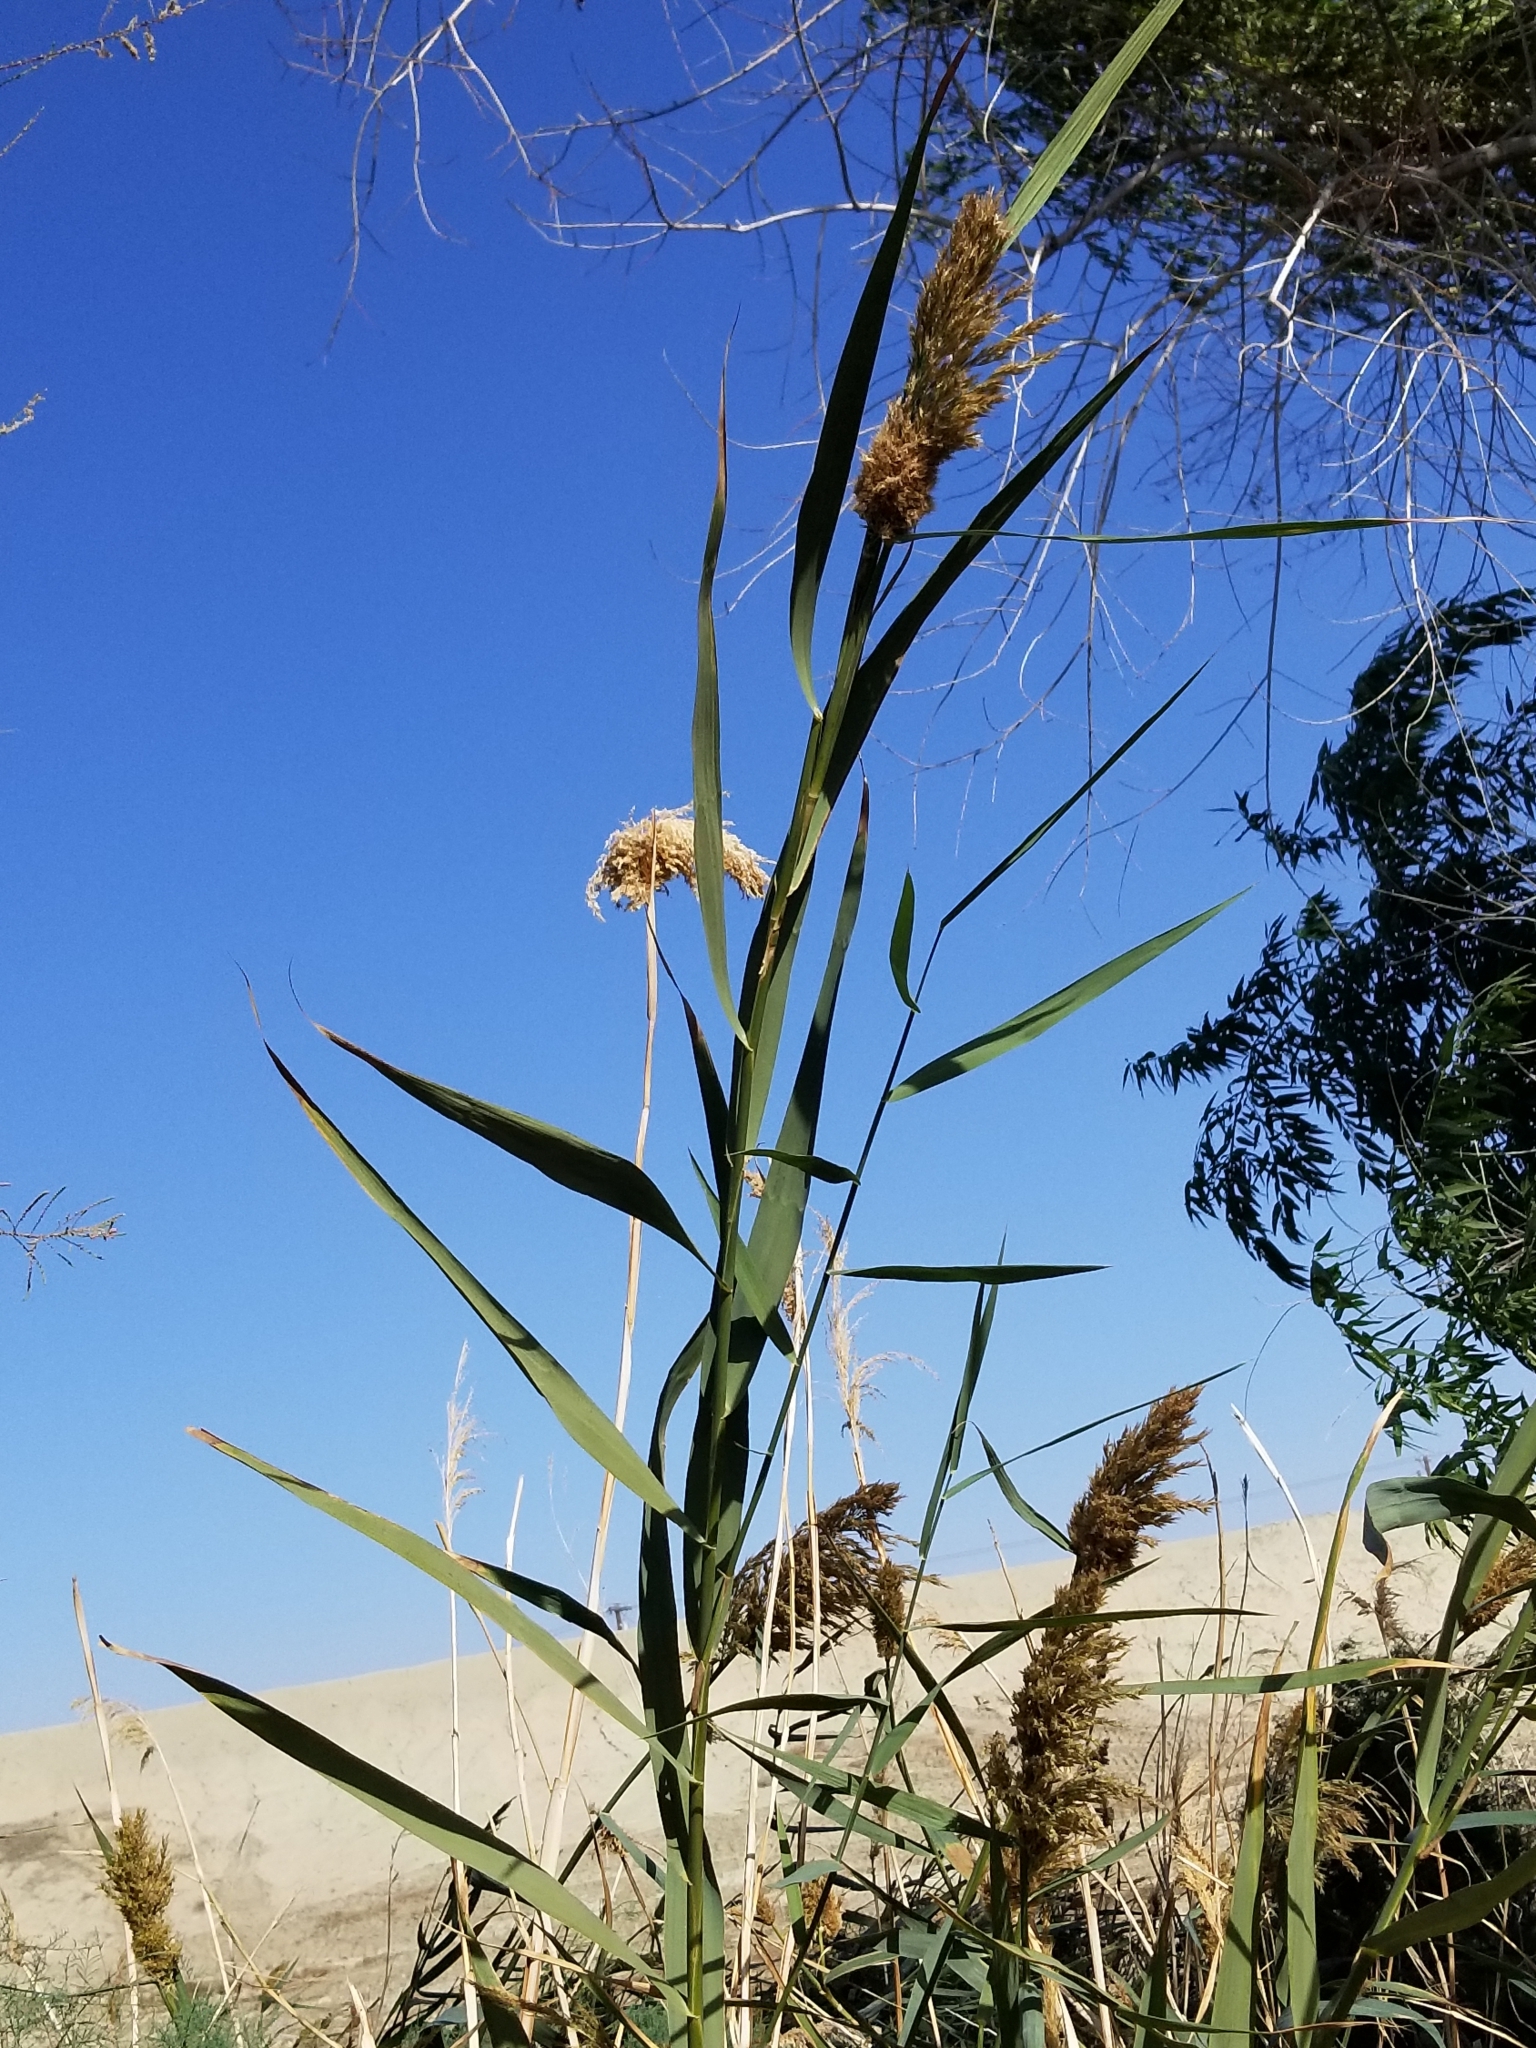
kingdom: Plantae
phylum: Tracheophyta
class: Liliopsida
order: Poales
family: Poaceae
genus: Arundo
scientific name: Arundo donax
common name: Giant reed
